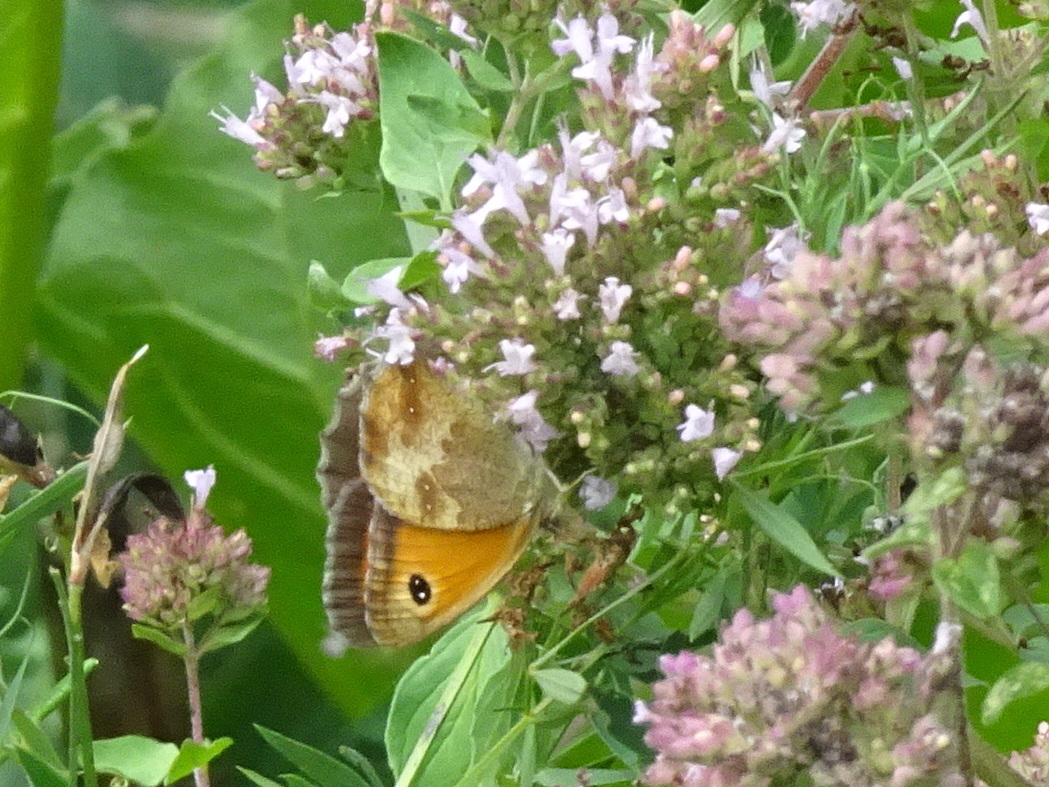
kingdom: Animalia
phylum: Arthropoda
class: Insecta
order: Lepidoptera
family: Nymphalidae
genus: Pyronia
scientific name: Pyronia tithonus
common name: Gatekeeper
